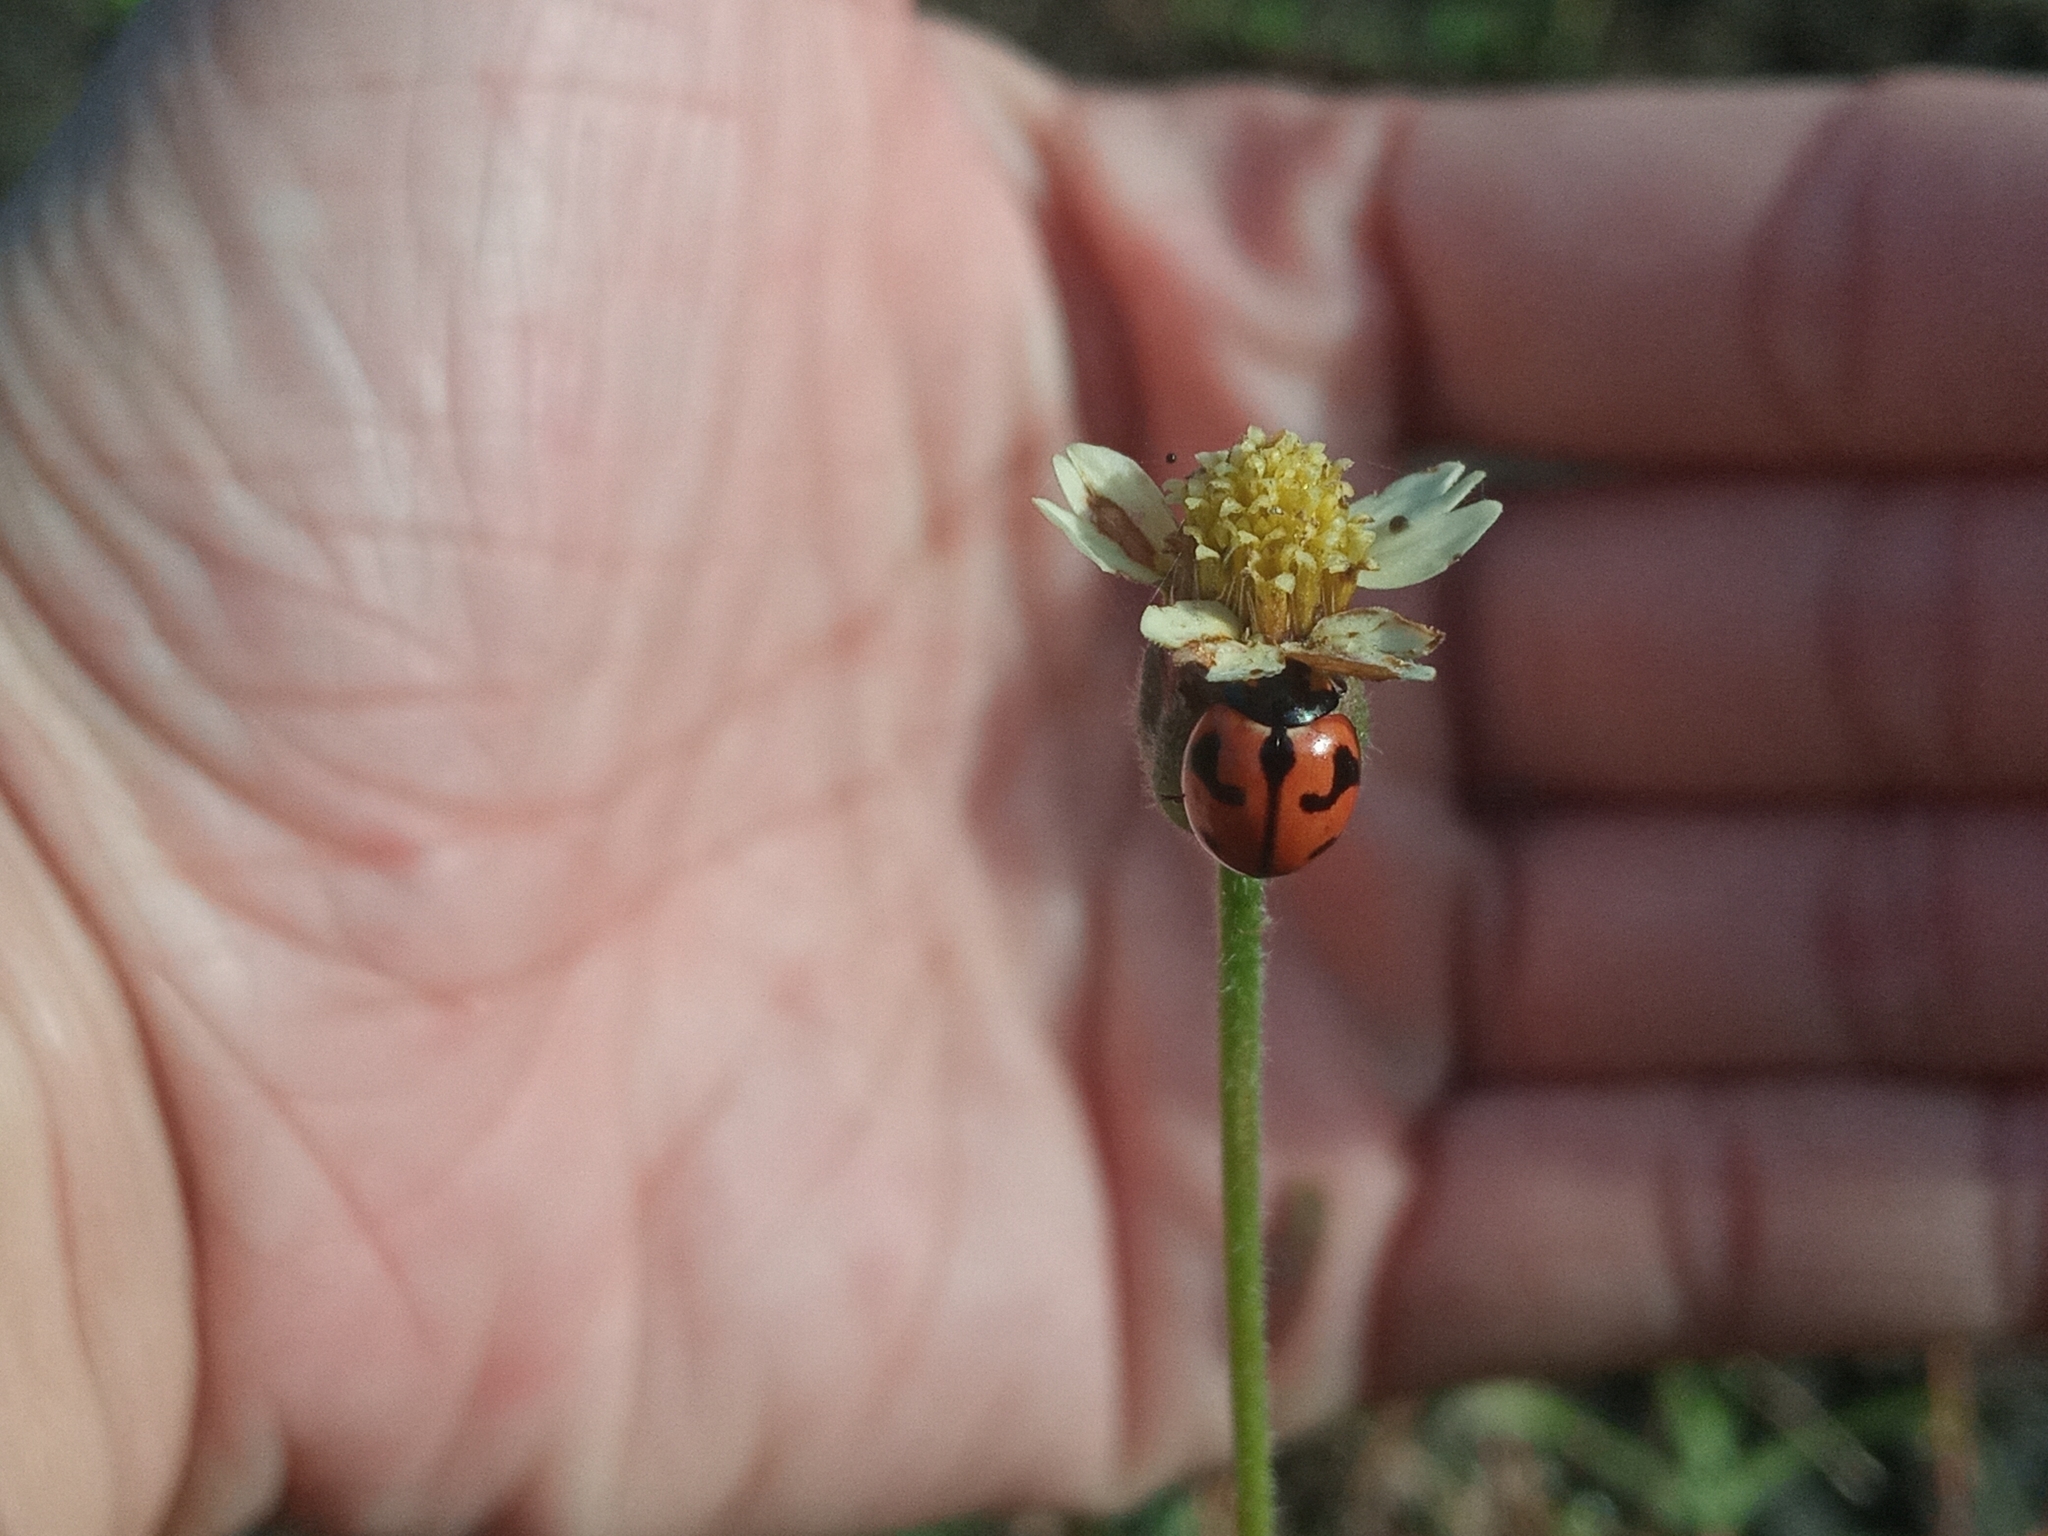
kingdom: Animalia
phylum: Arthropoda
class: Insecta
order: Coleoptera
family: Coccinellidae
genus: Coccinella
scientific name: Coccinella transversalis
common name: Transverse lady beetle
